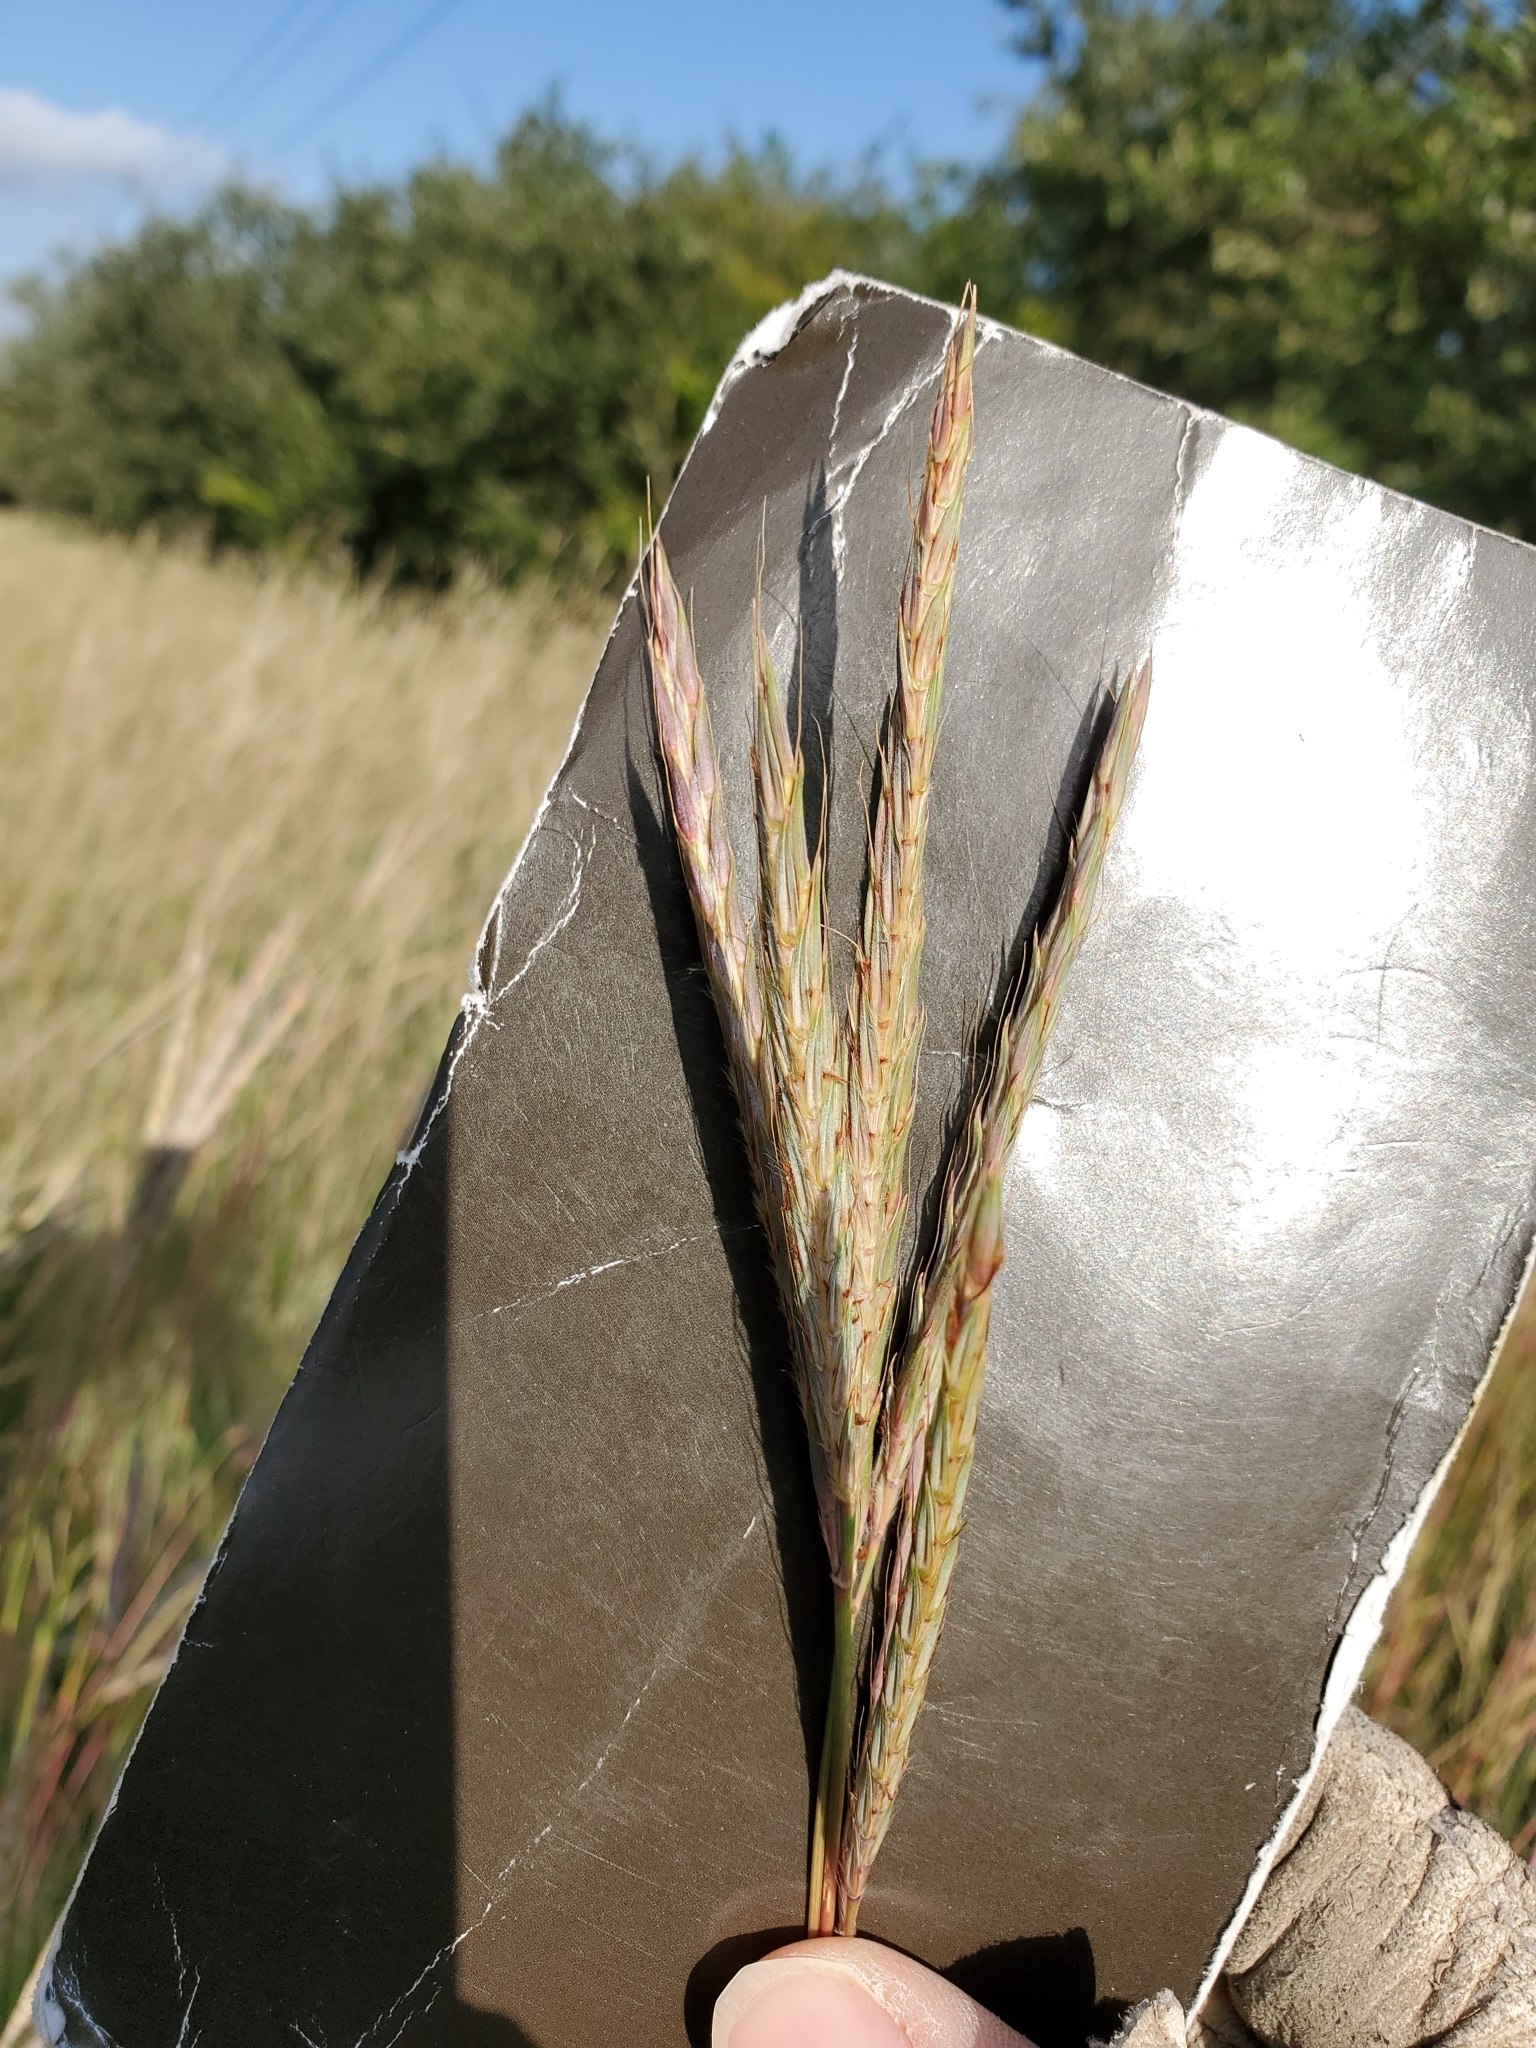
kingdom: Plantae
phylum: Tracheophyta
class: Liliopsida
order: Poales
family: Poaceae
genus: Andropogon
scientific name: Andropogon gerardi
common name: Big bluestem
